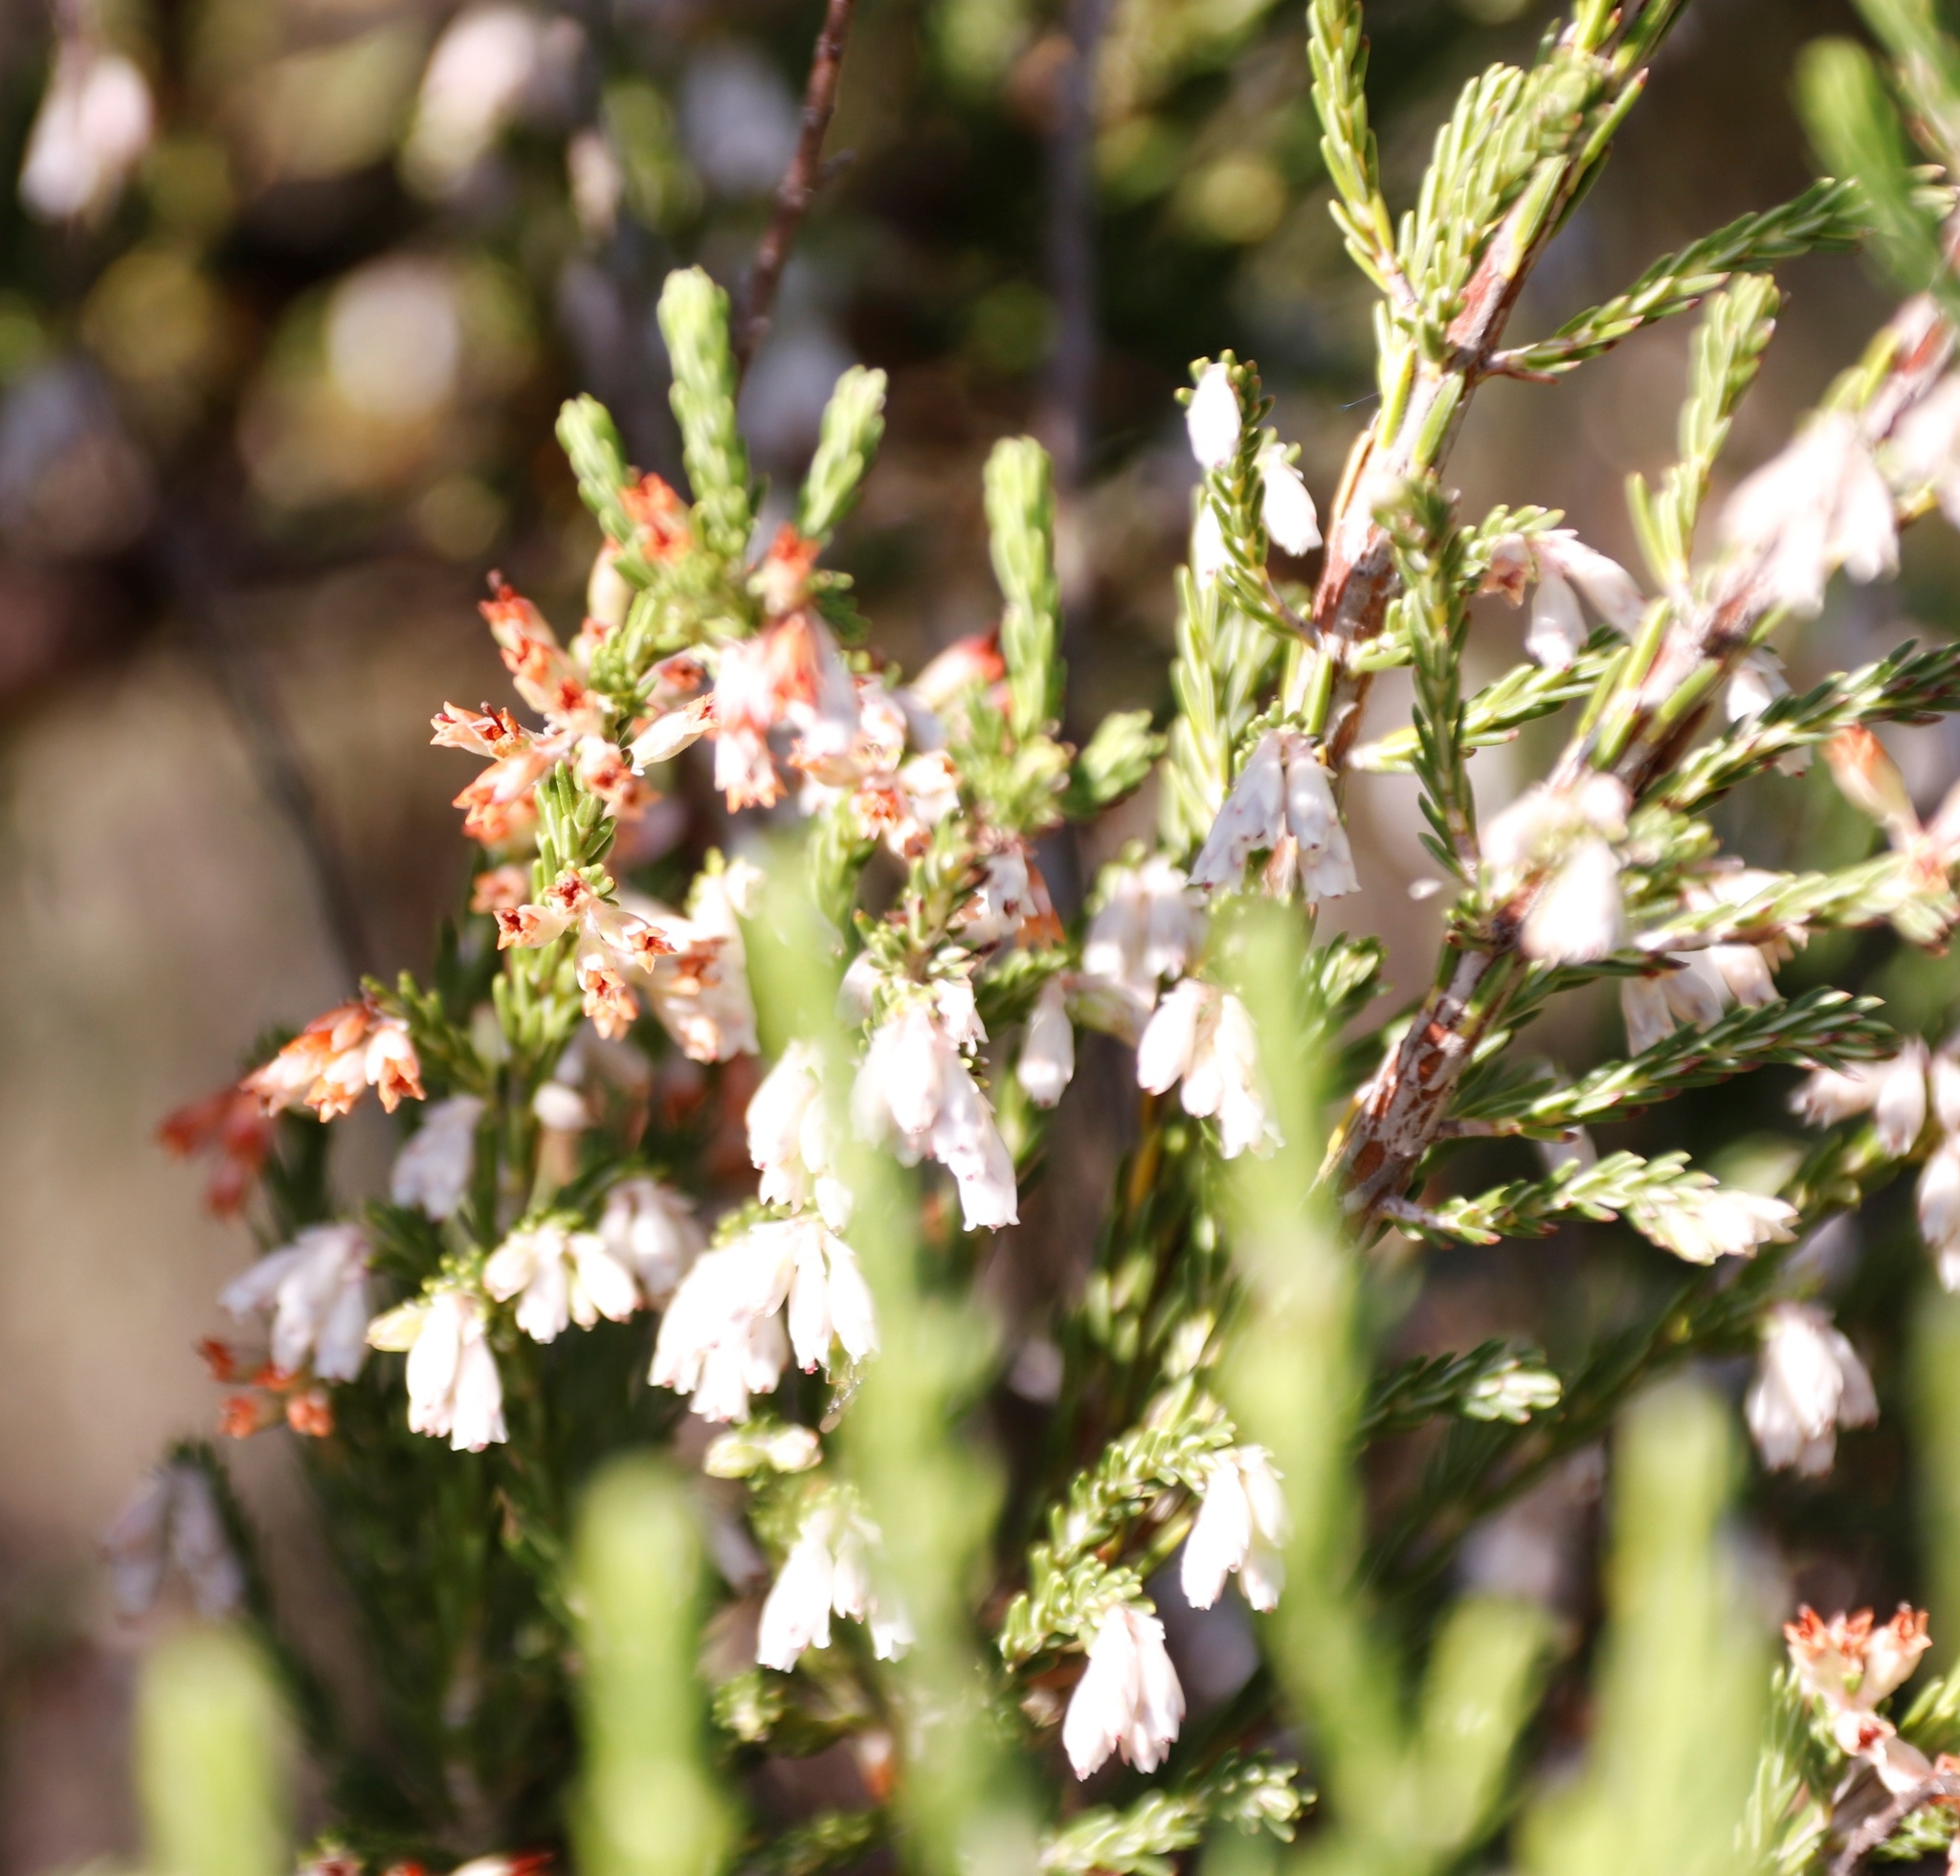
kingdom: Plantae
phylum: Tracheophyta
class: Magnoliopsida
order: Ericales
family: Ericaceae
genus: Erica
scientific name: Erica caffrorum
